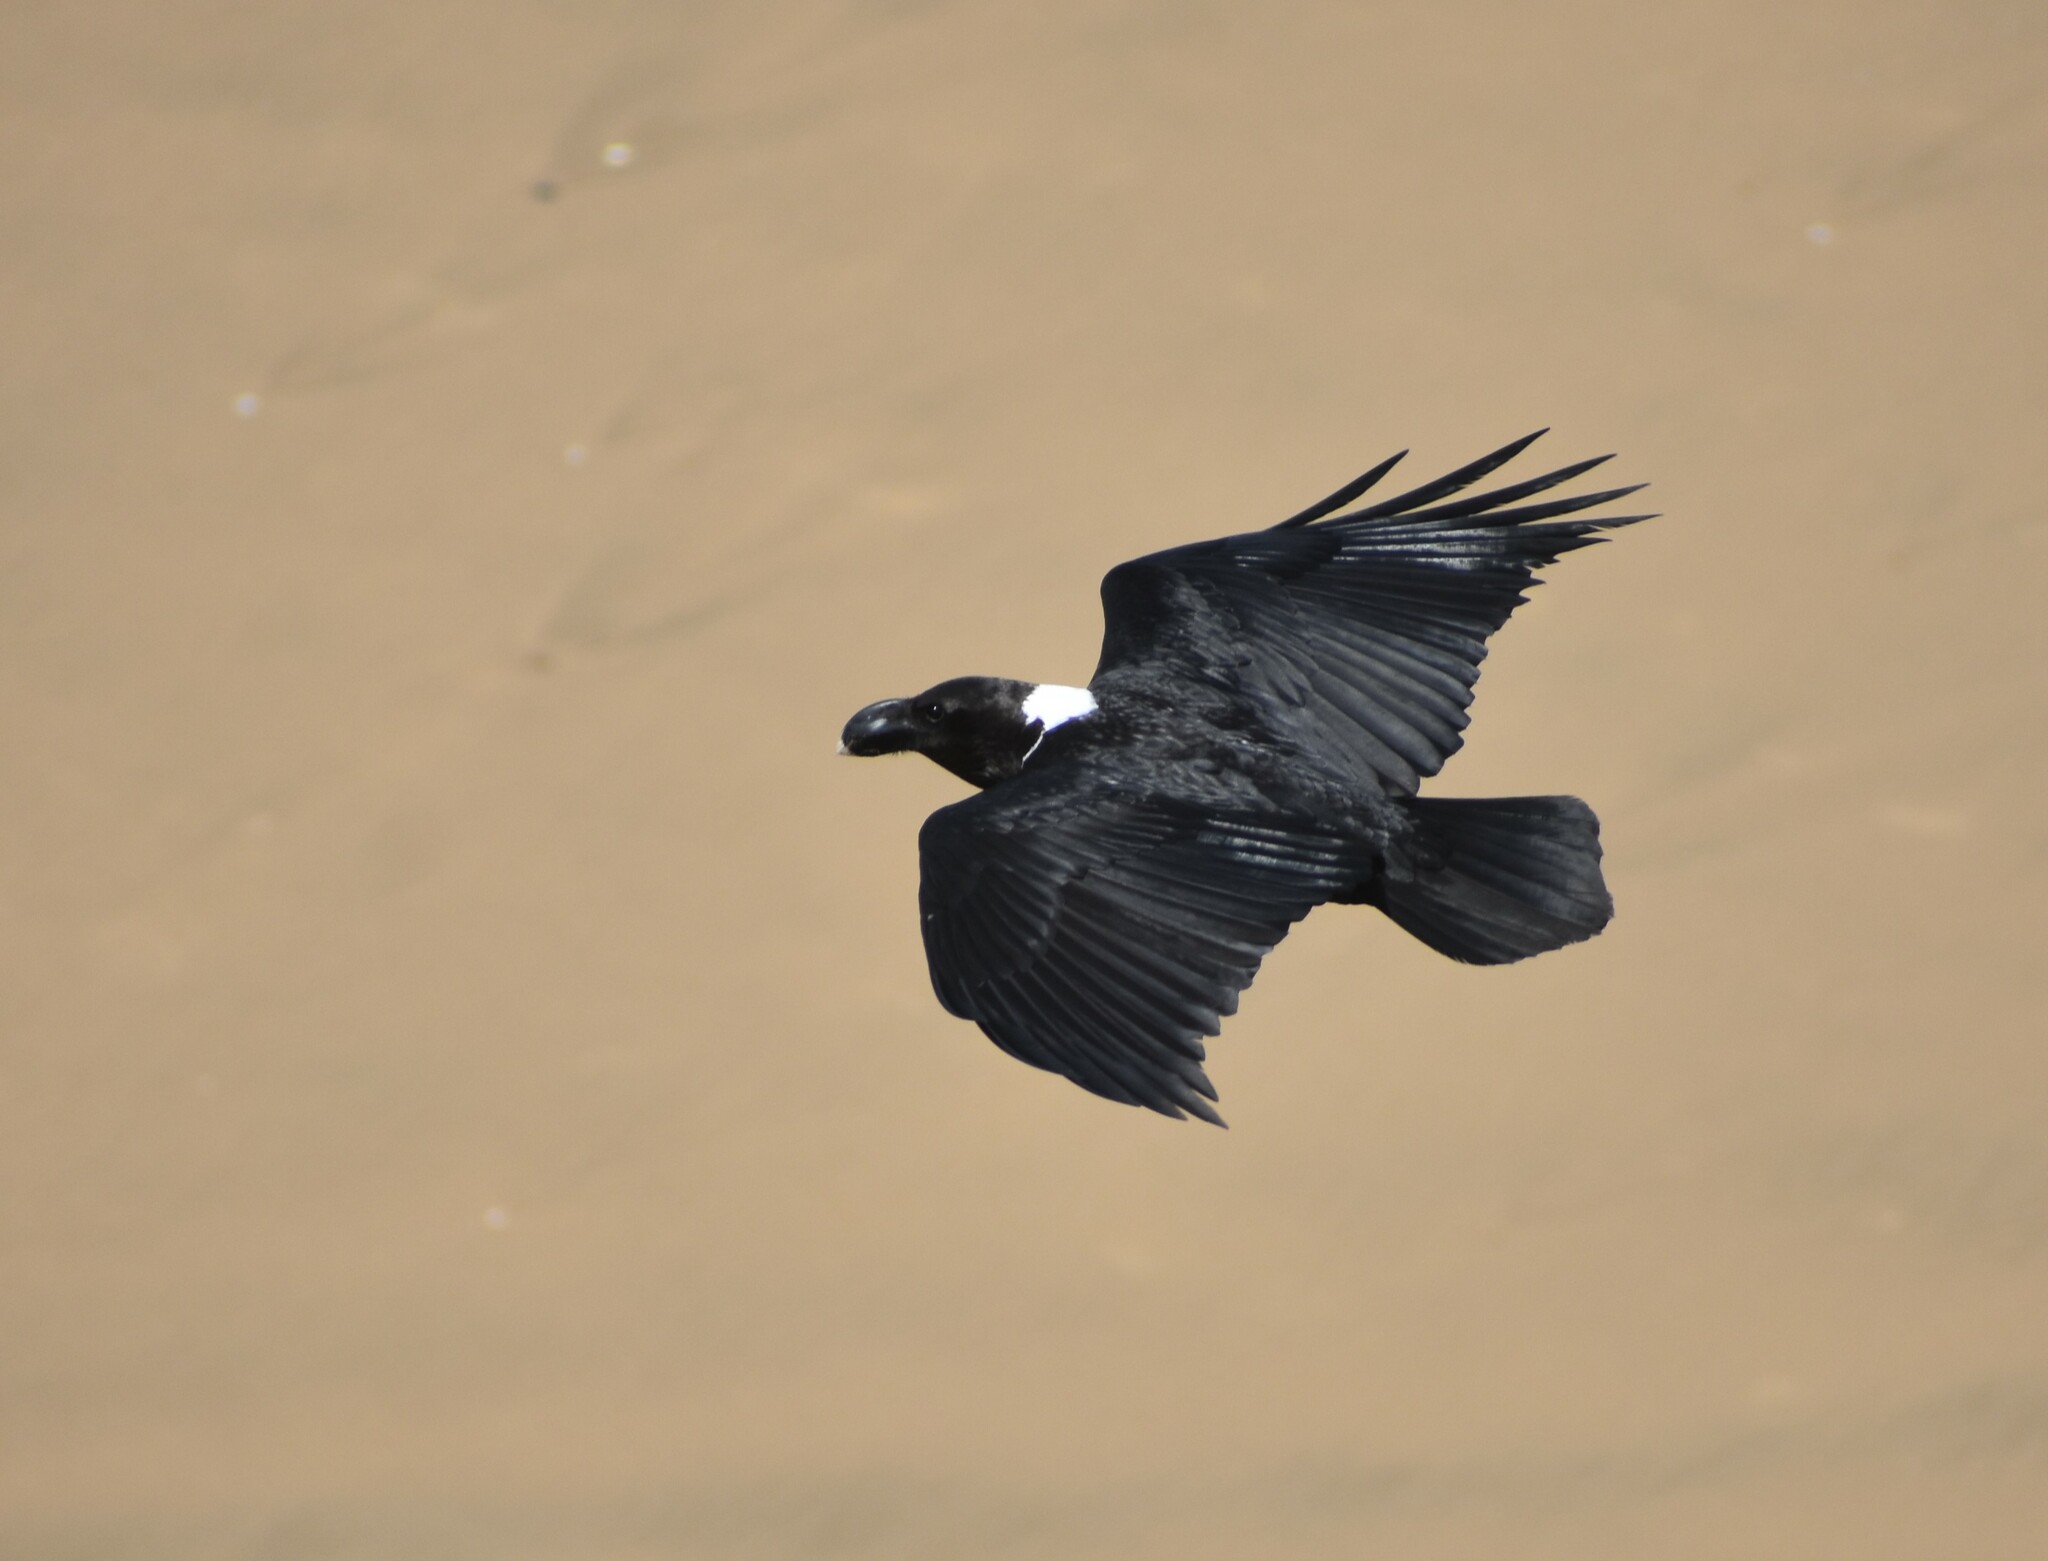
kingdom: Animalia
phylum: Chordata
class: Aves
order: Passeriformes
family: Corvidae
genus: Corvus
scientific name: Corvus albicollis
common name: White-necked raven
